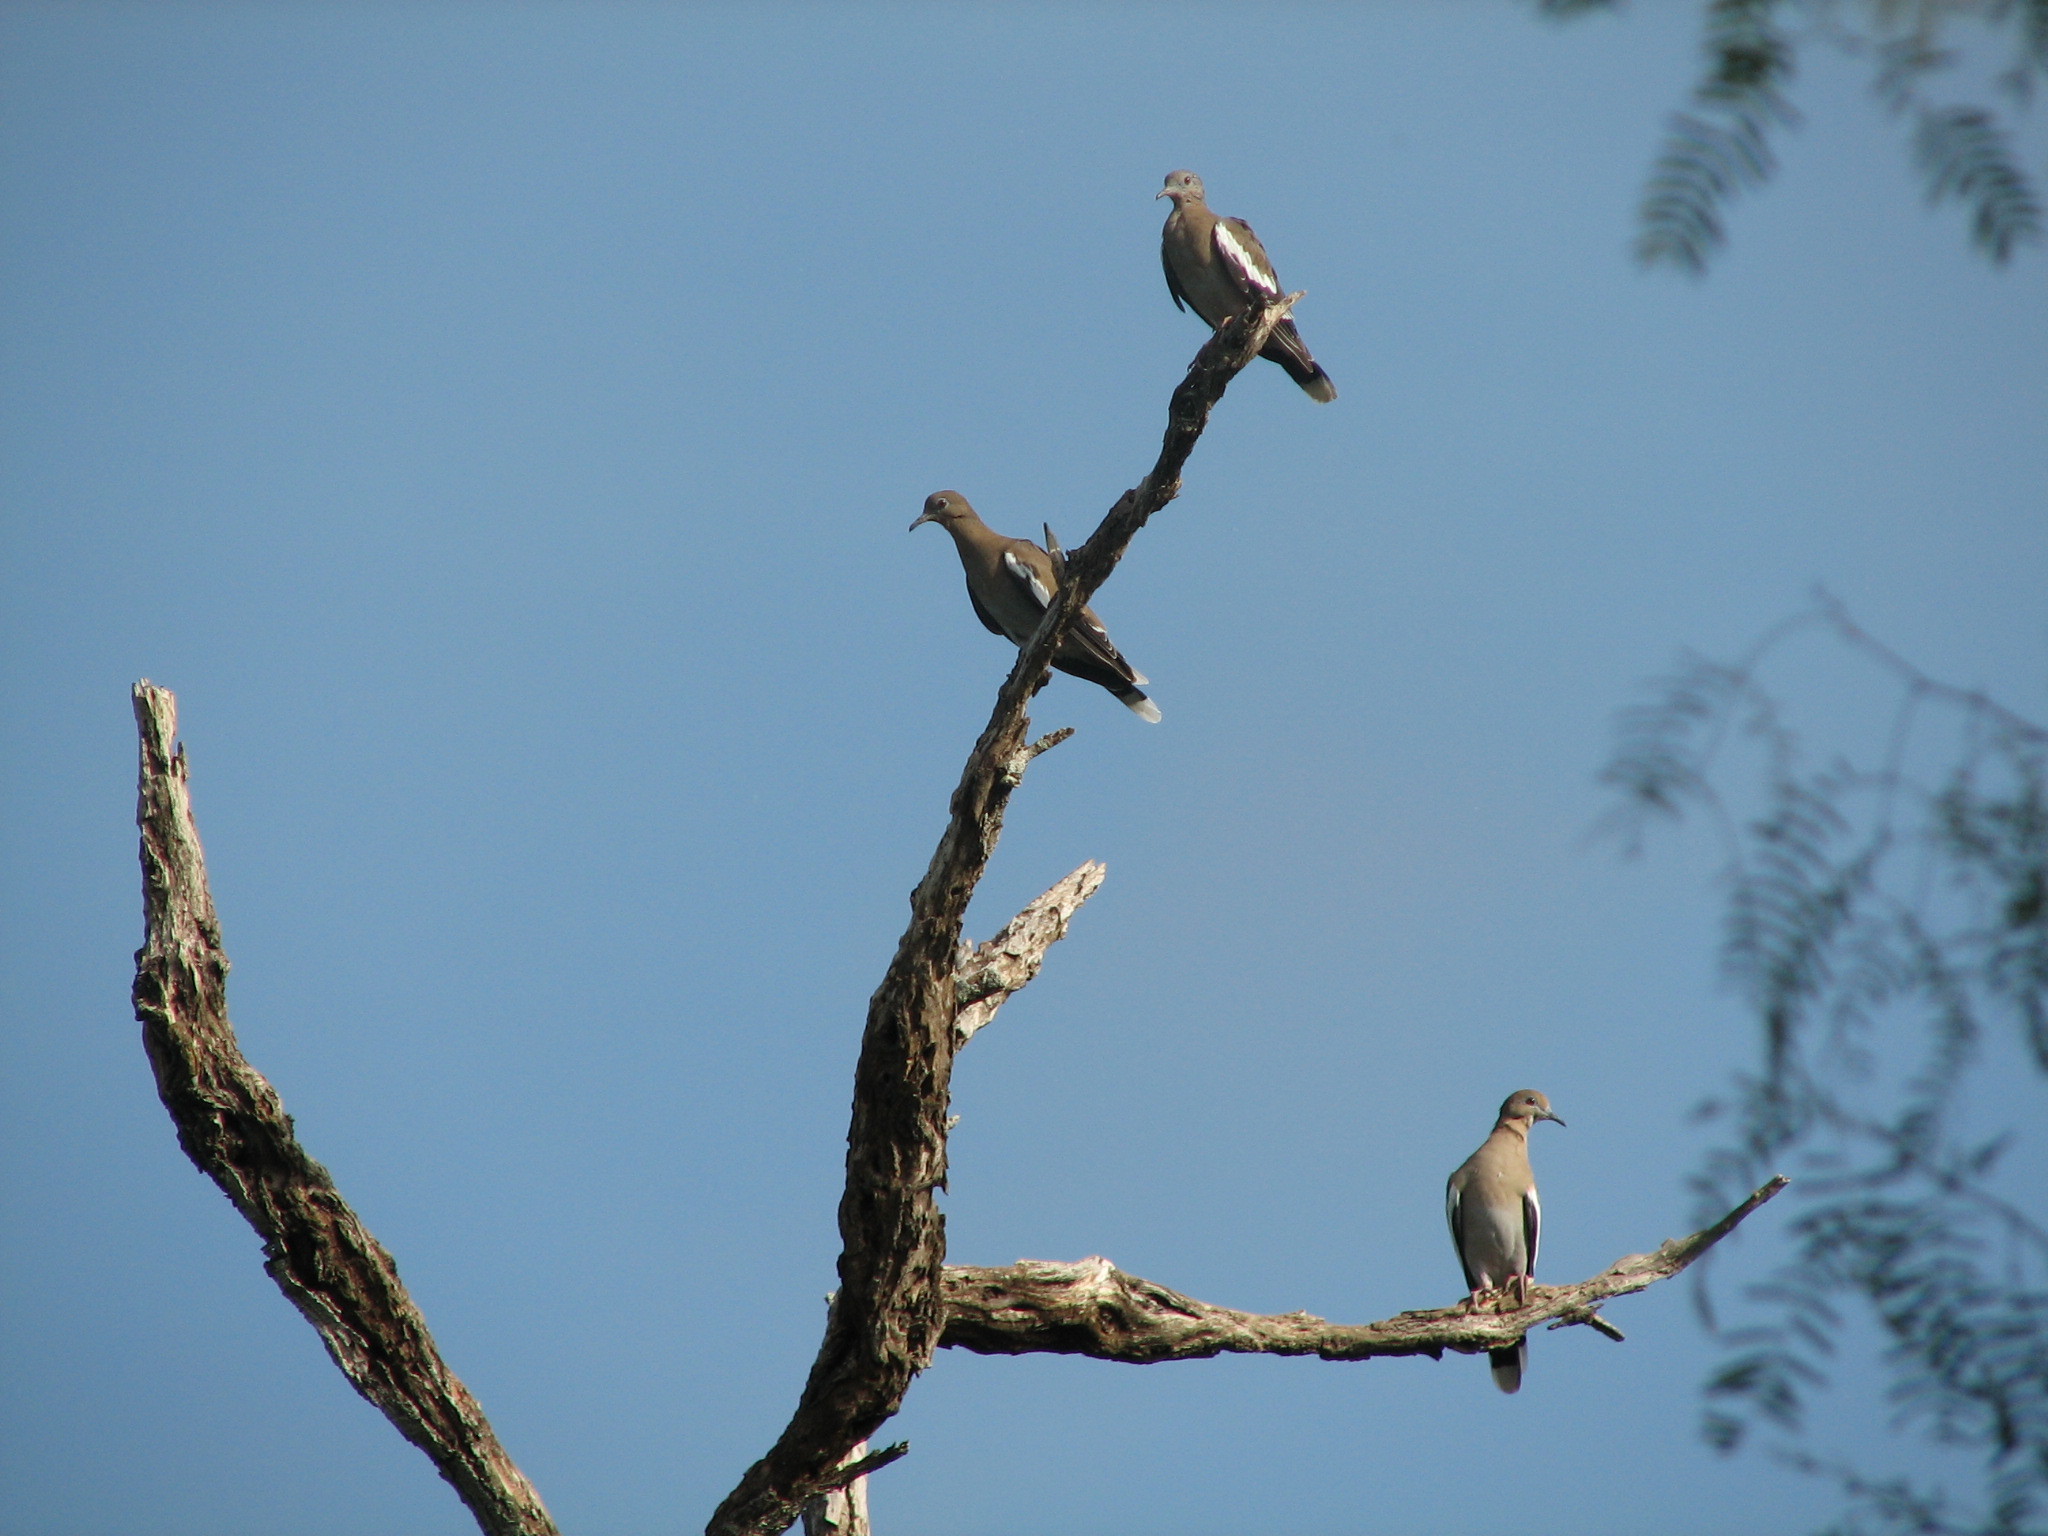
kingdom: Animalia
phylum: Chordata
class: Aves
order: Columbiformes
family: Columbidae
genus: Zenaida
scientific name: Zenaida asiatica
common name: White-winged dove
